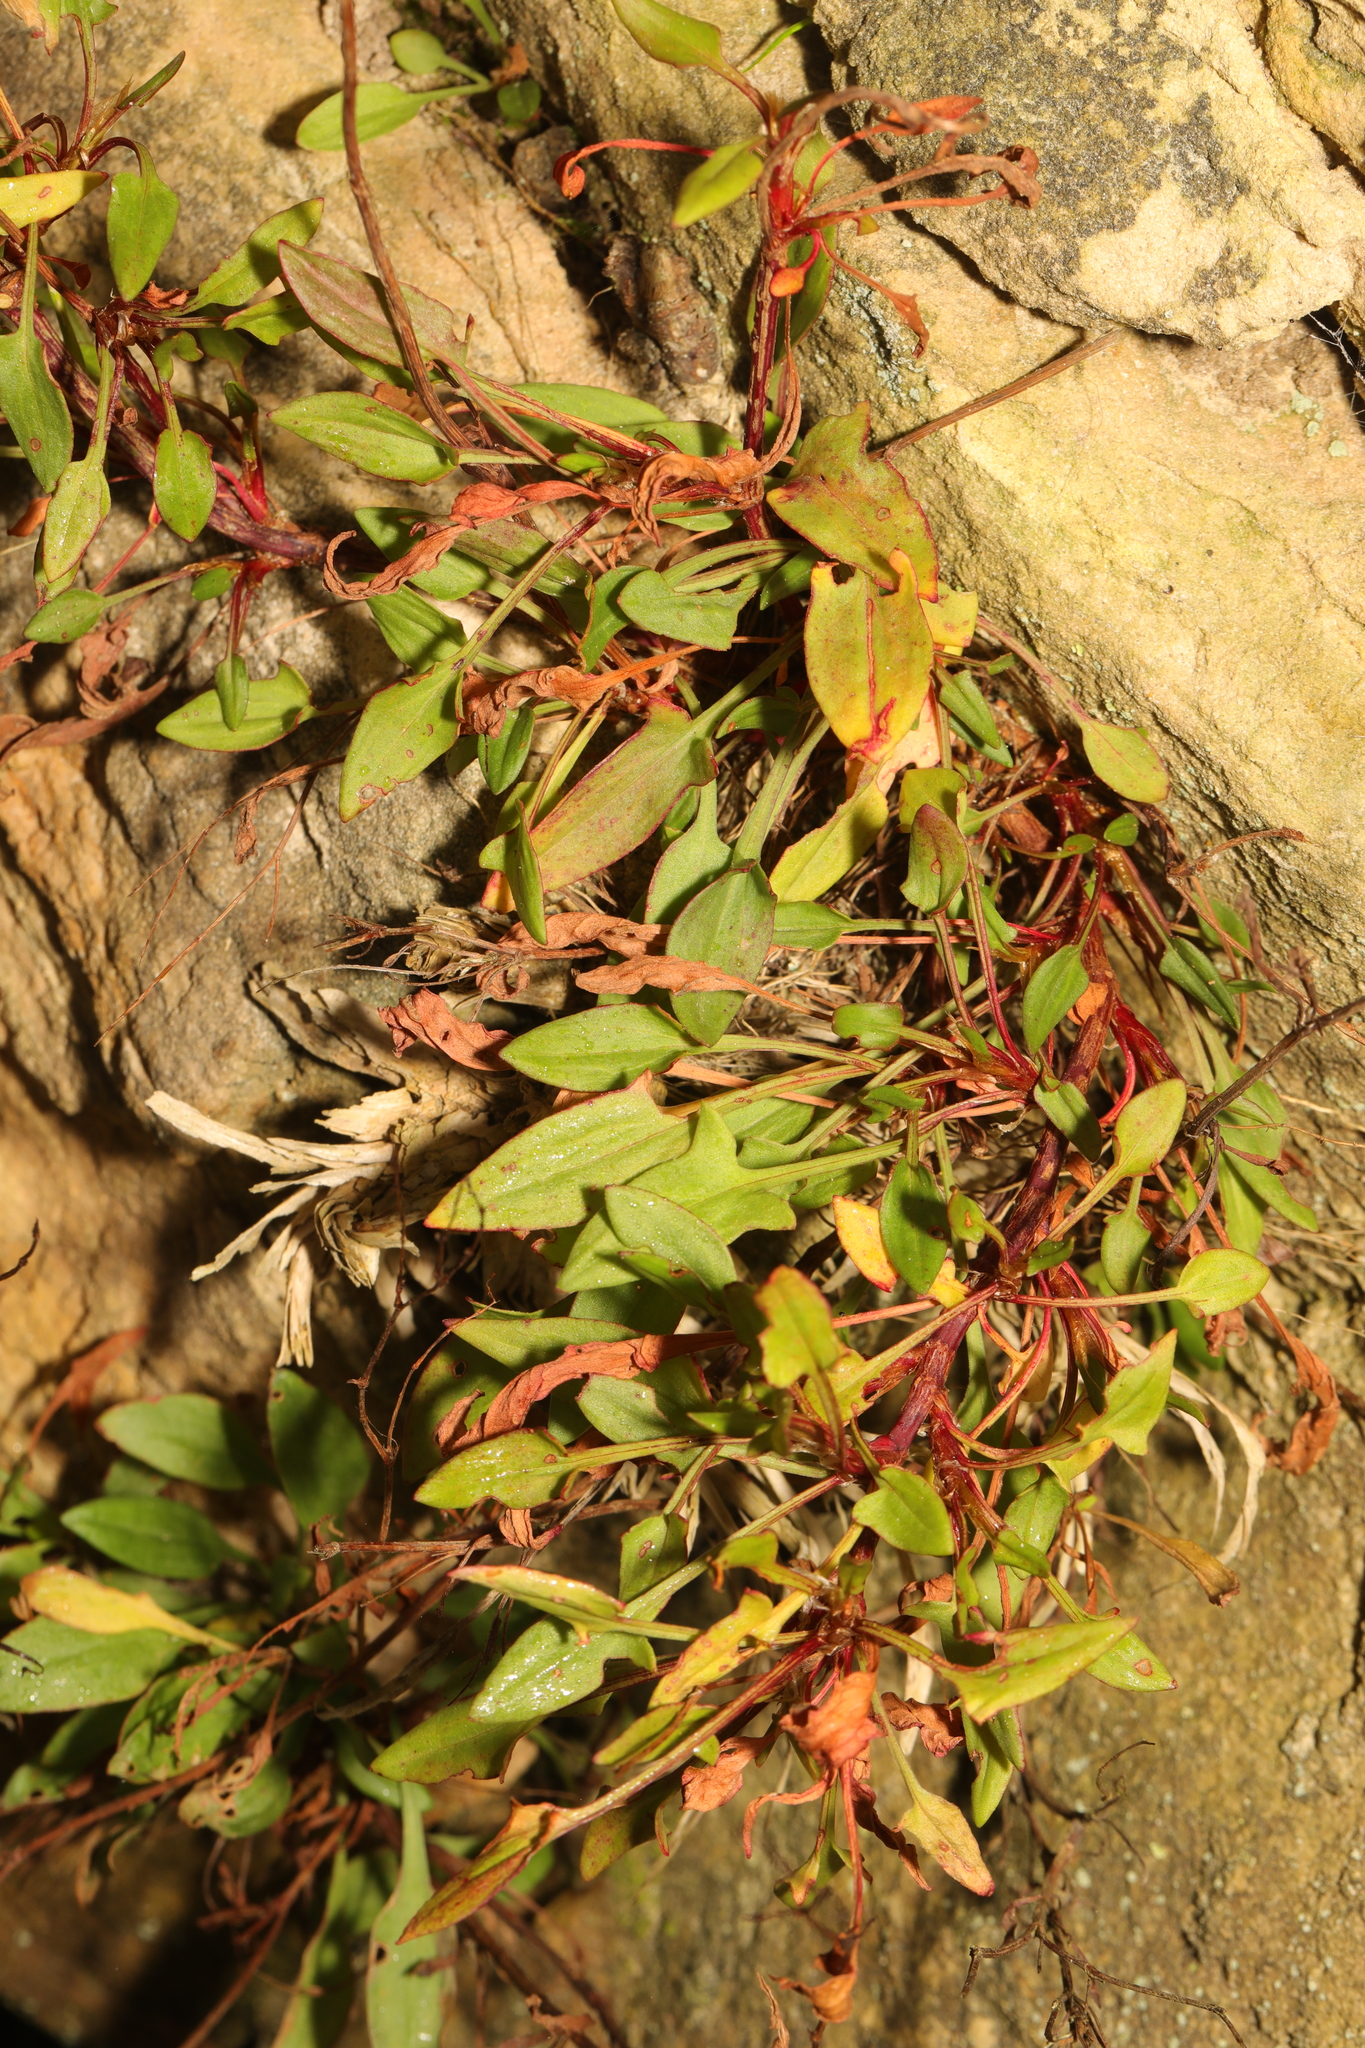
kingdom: Plantae
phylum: Tracheophyta
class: Magnoliopsida
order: Caryophyllales
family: Polygonaceae
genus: Rumex
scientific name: Rumex acetosella
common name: Common sheep sorrel
